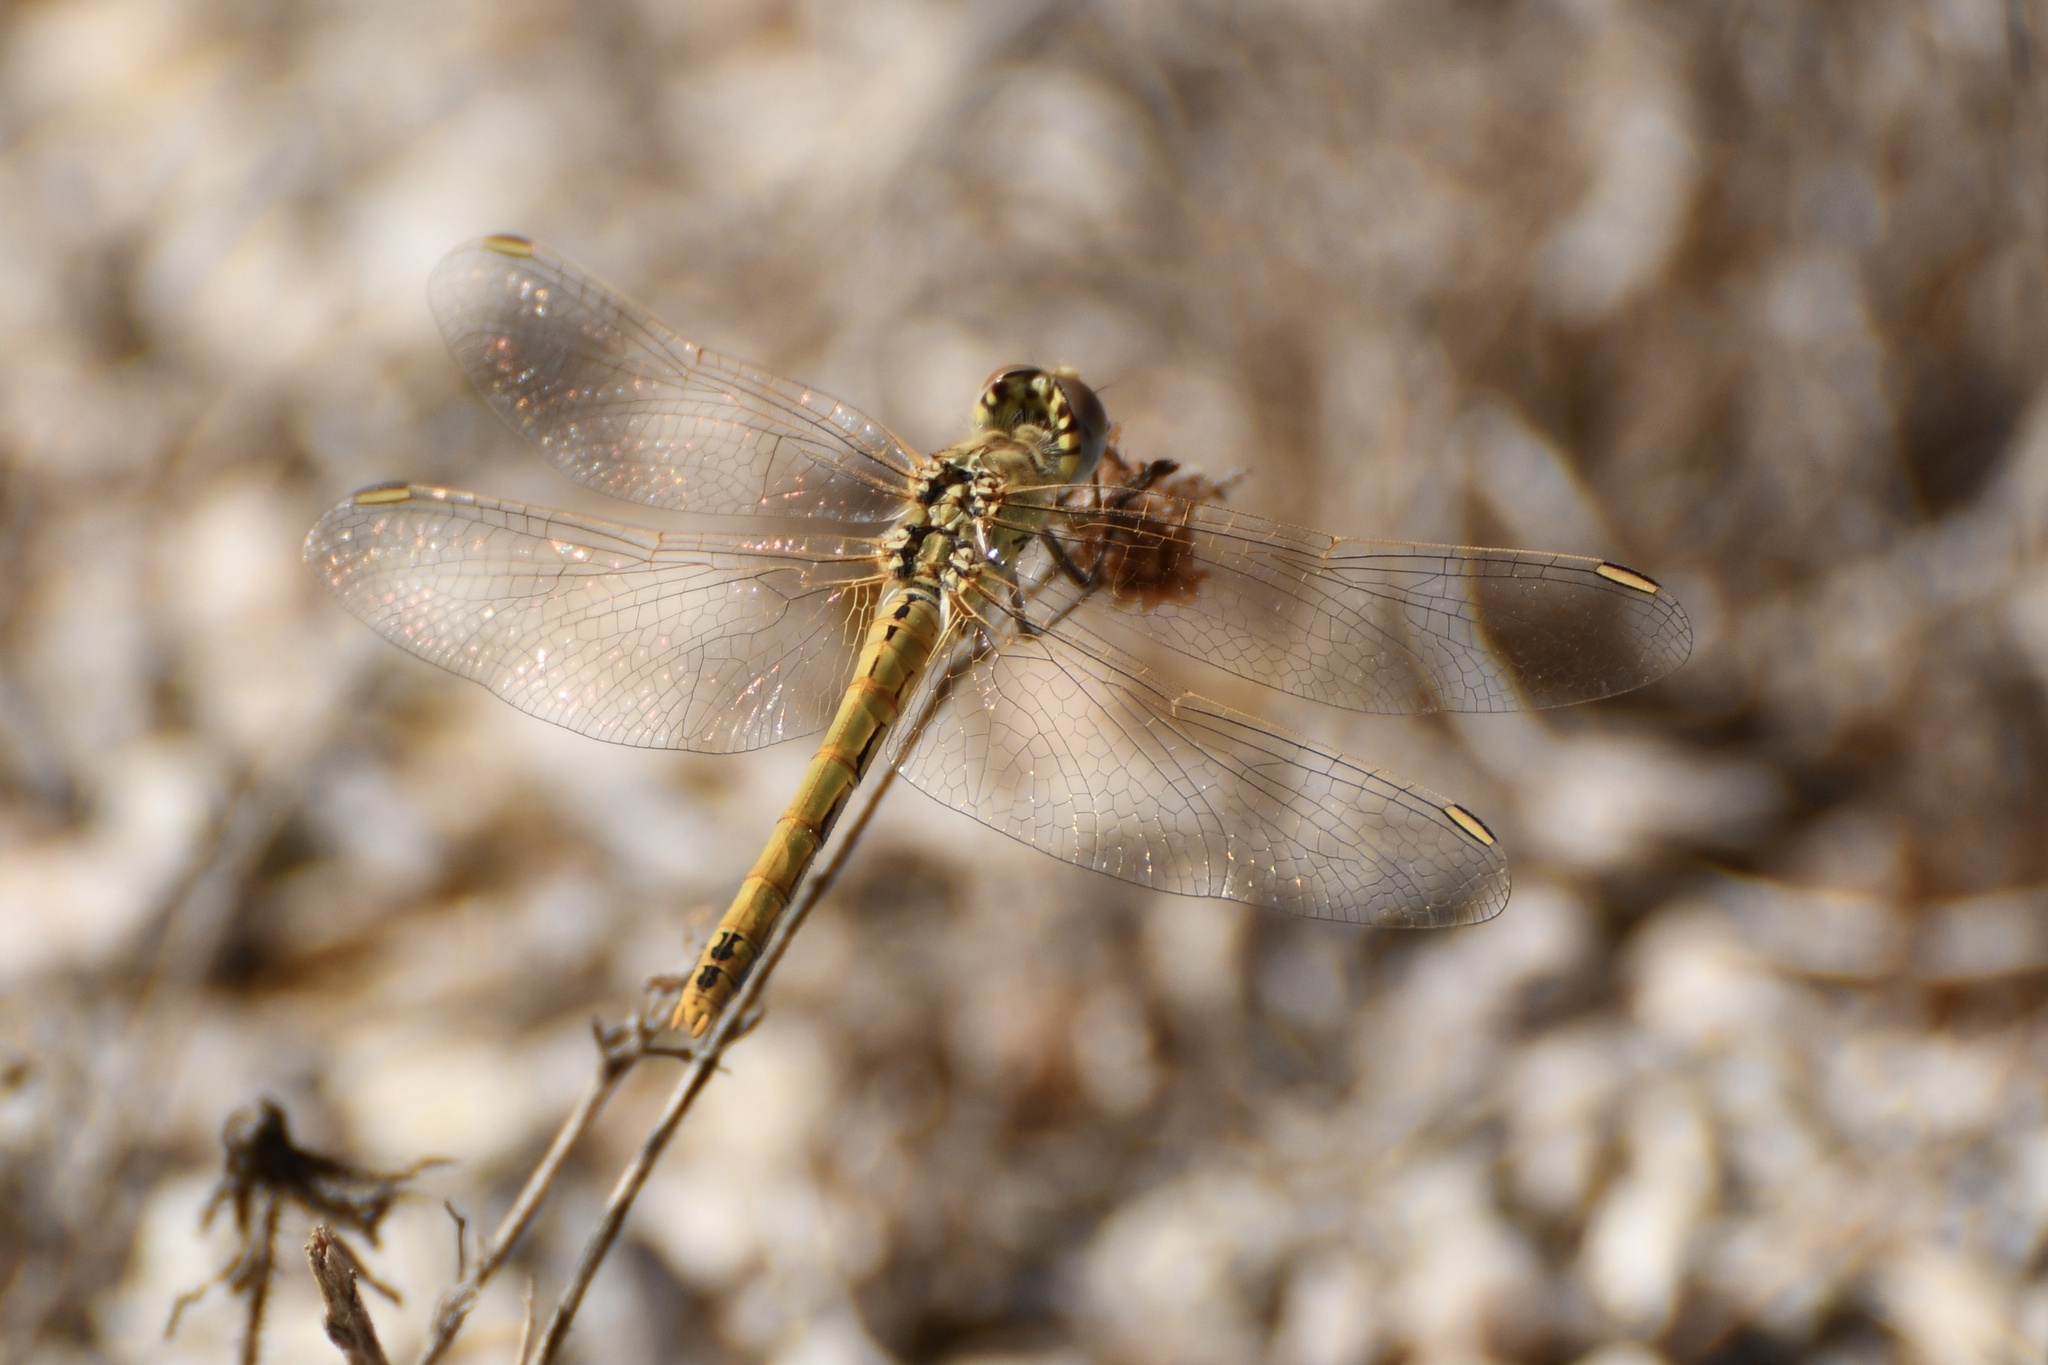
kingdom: Animalia
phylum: Arthropoda
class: Insecta
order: Odonata
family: Libellulidae
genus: Sympetrum
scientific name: Sympetrum fonscolombii
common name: Red-veined darter
